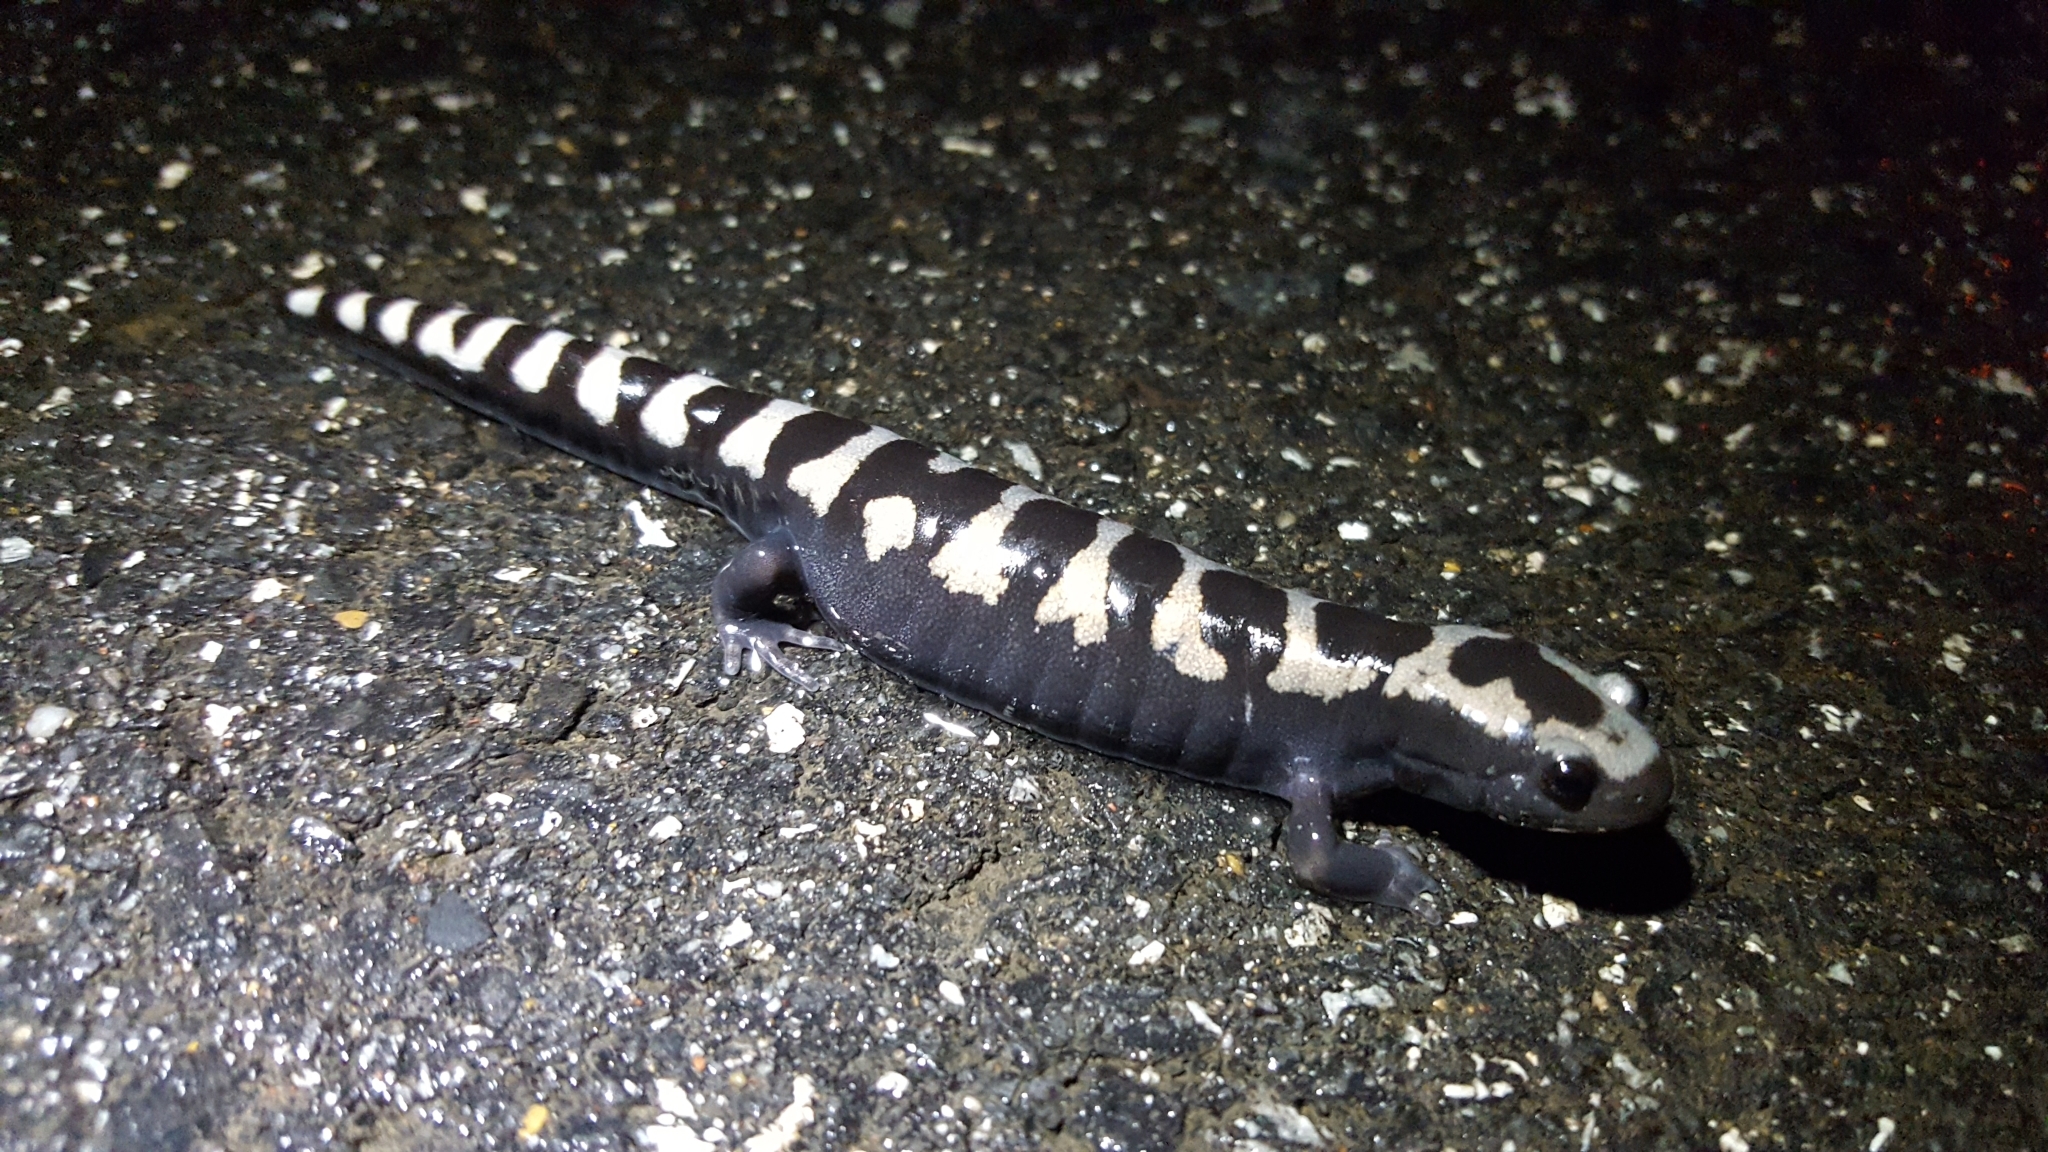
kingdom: Animalia
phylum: Chordata
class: Amphibia
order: Caudata
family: Ambystomatidae
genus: Ambystoma
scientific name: Ambystoma opacum
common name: Marbled salamander
